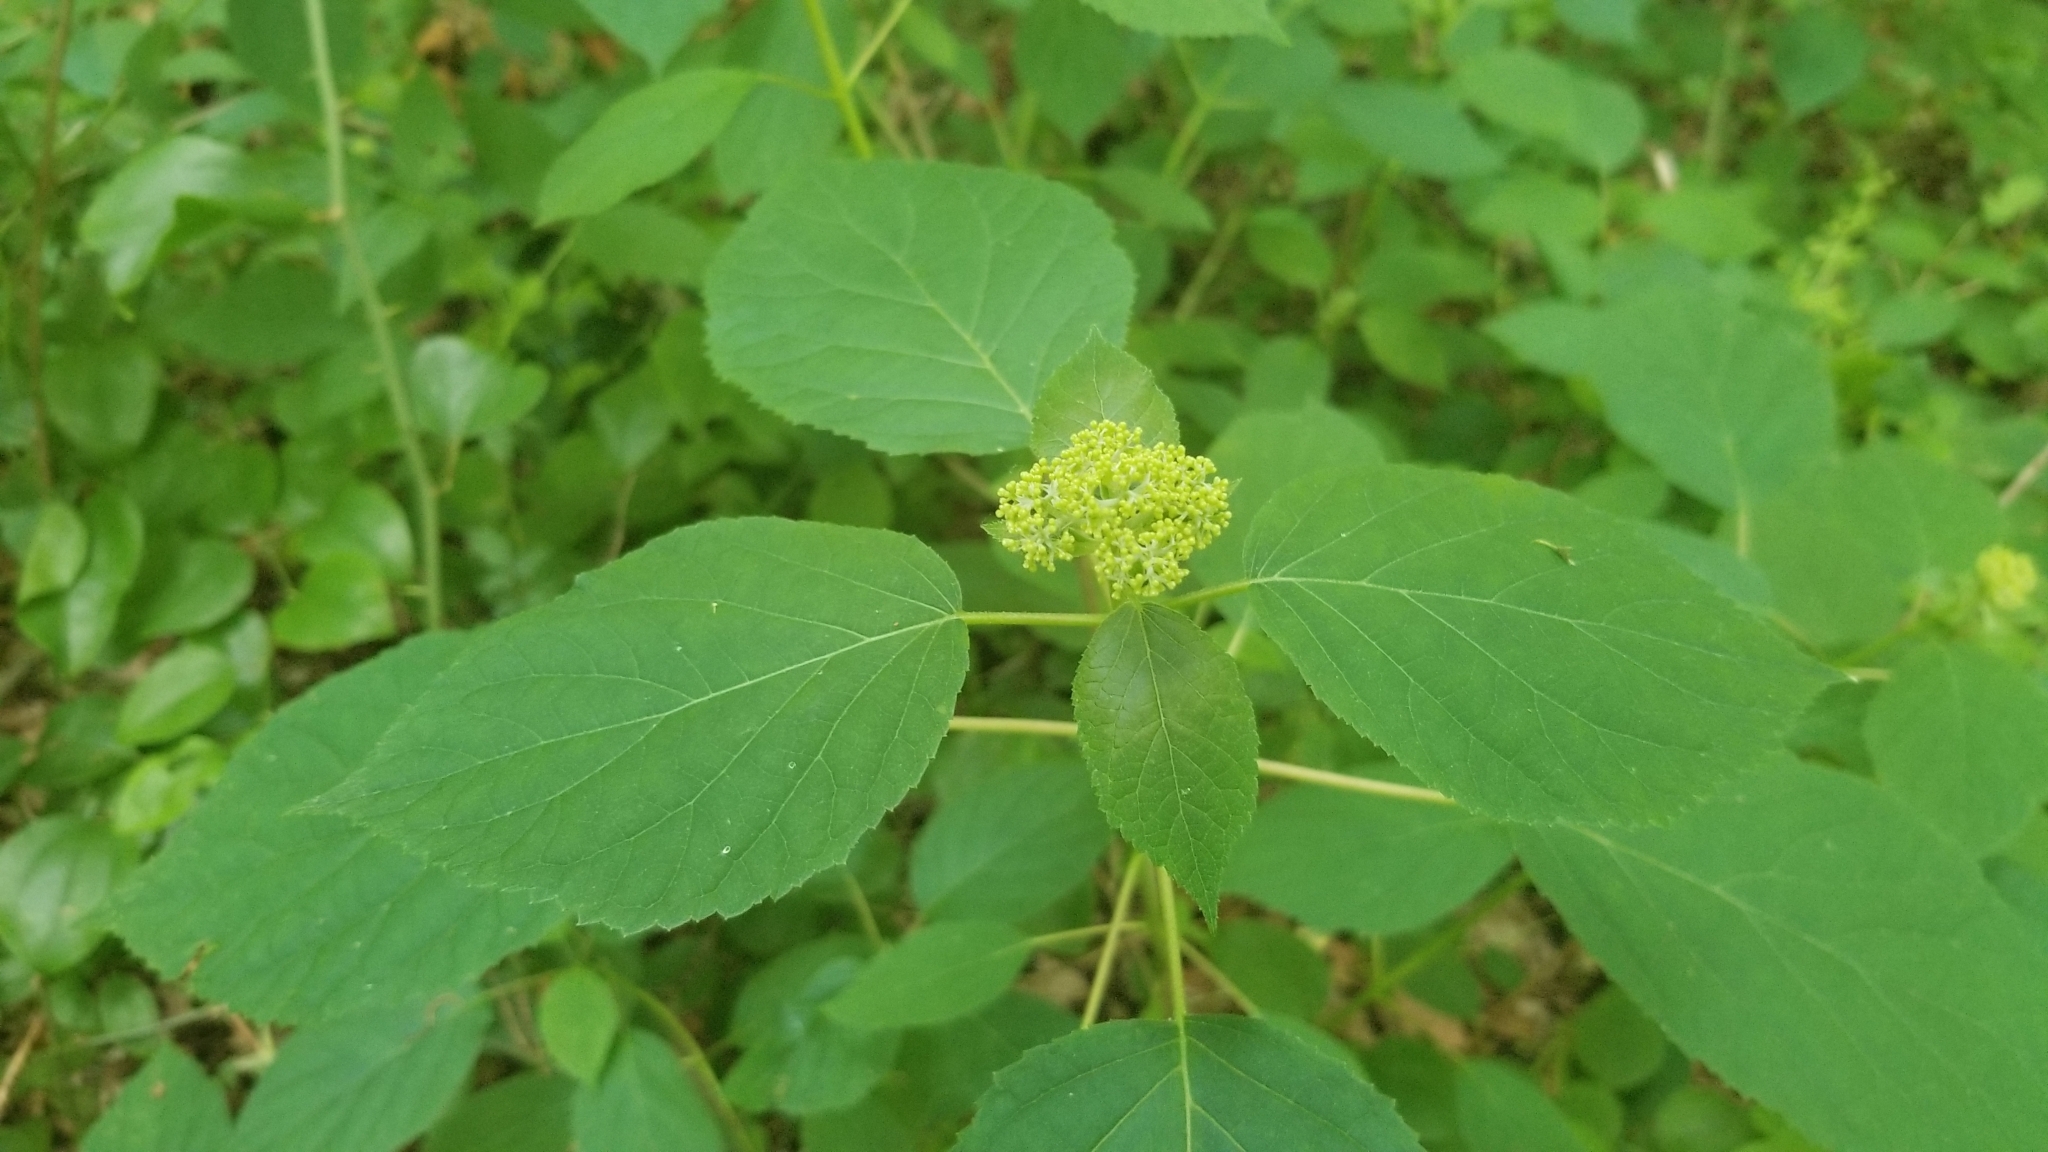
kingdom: Plantae
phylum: Tracheophyta
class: Magnoliopsida
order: Cornales
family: Hydrangeaceae
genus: Hydrangea
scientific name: Hydrangea arborescens
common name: Sevenbark
